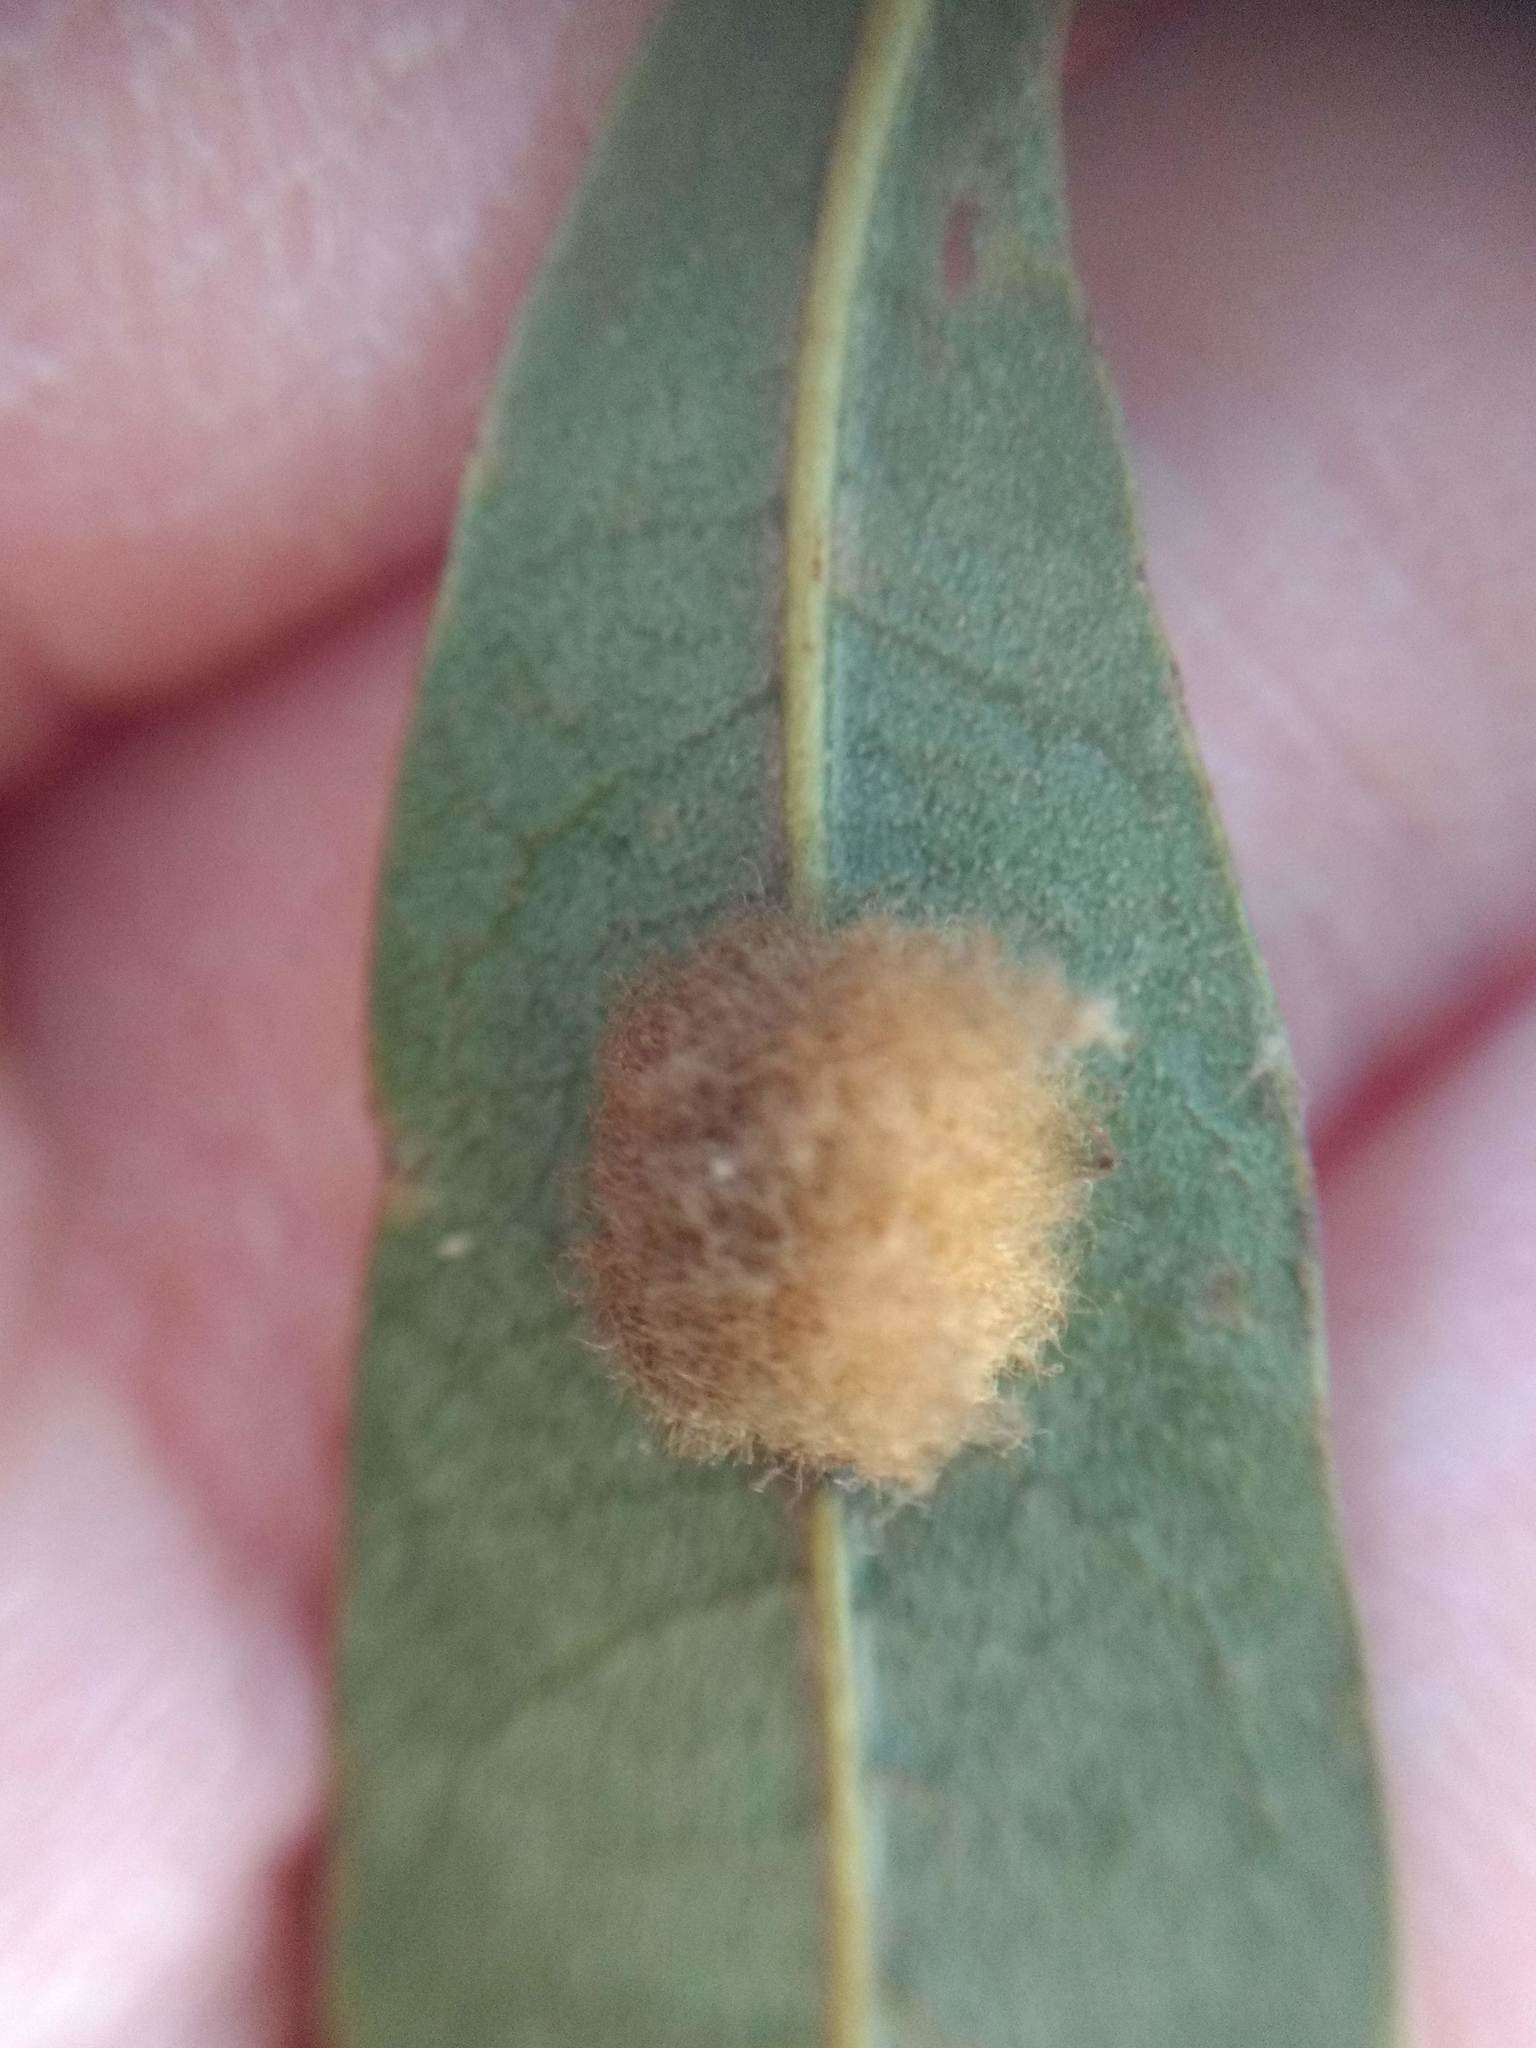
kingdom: Animalia
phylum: Arthropoda
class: Insecta
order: Hymenoptera
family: Cynipidae
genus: Andricus
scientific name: Andricus Druon quercuslanigerum
